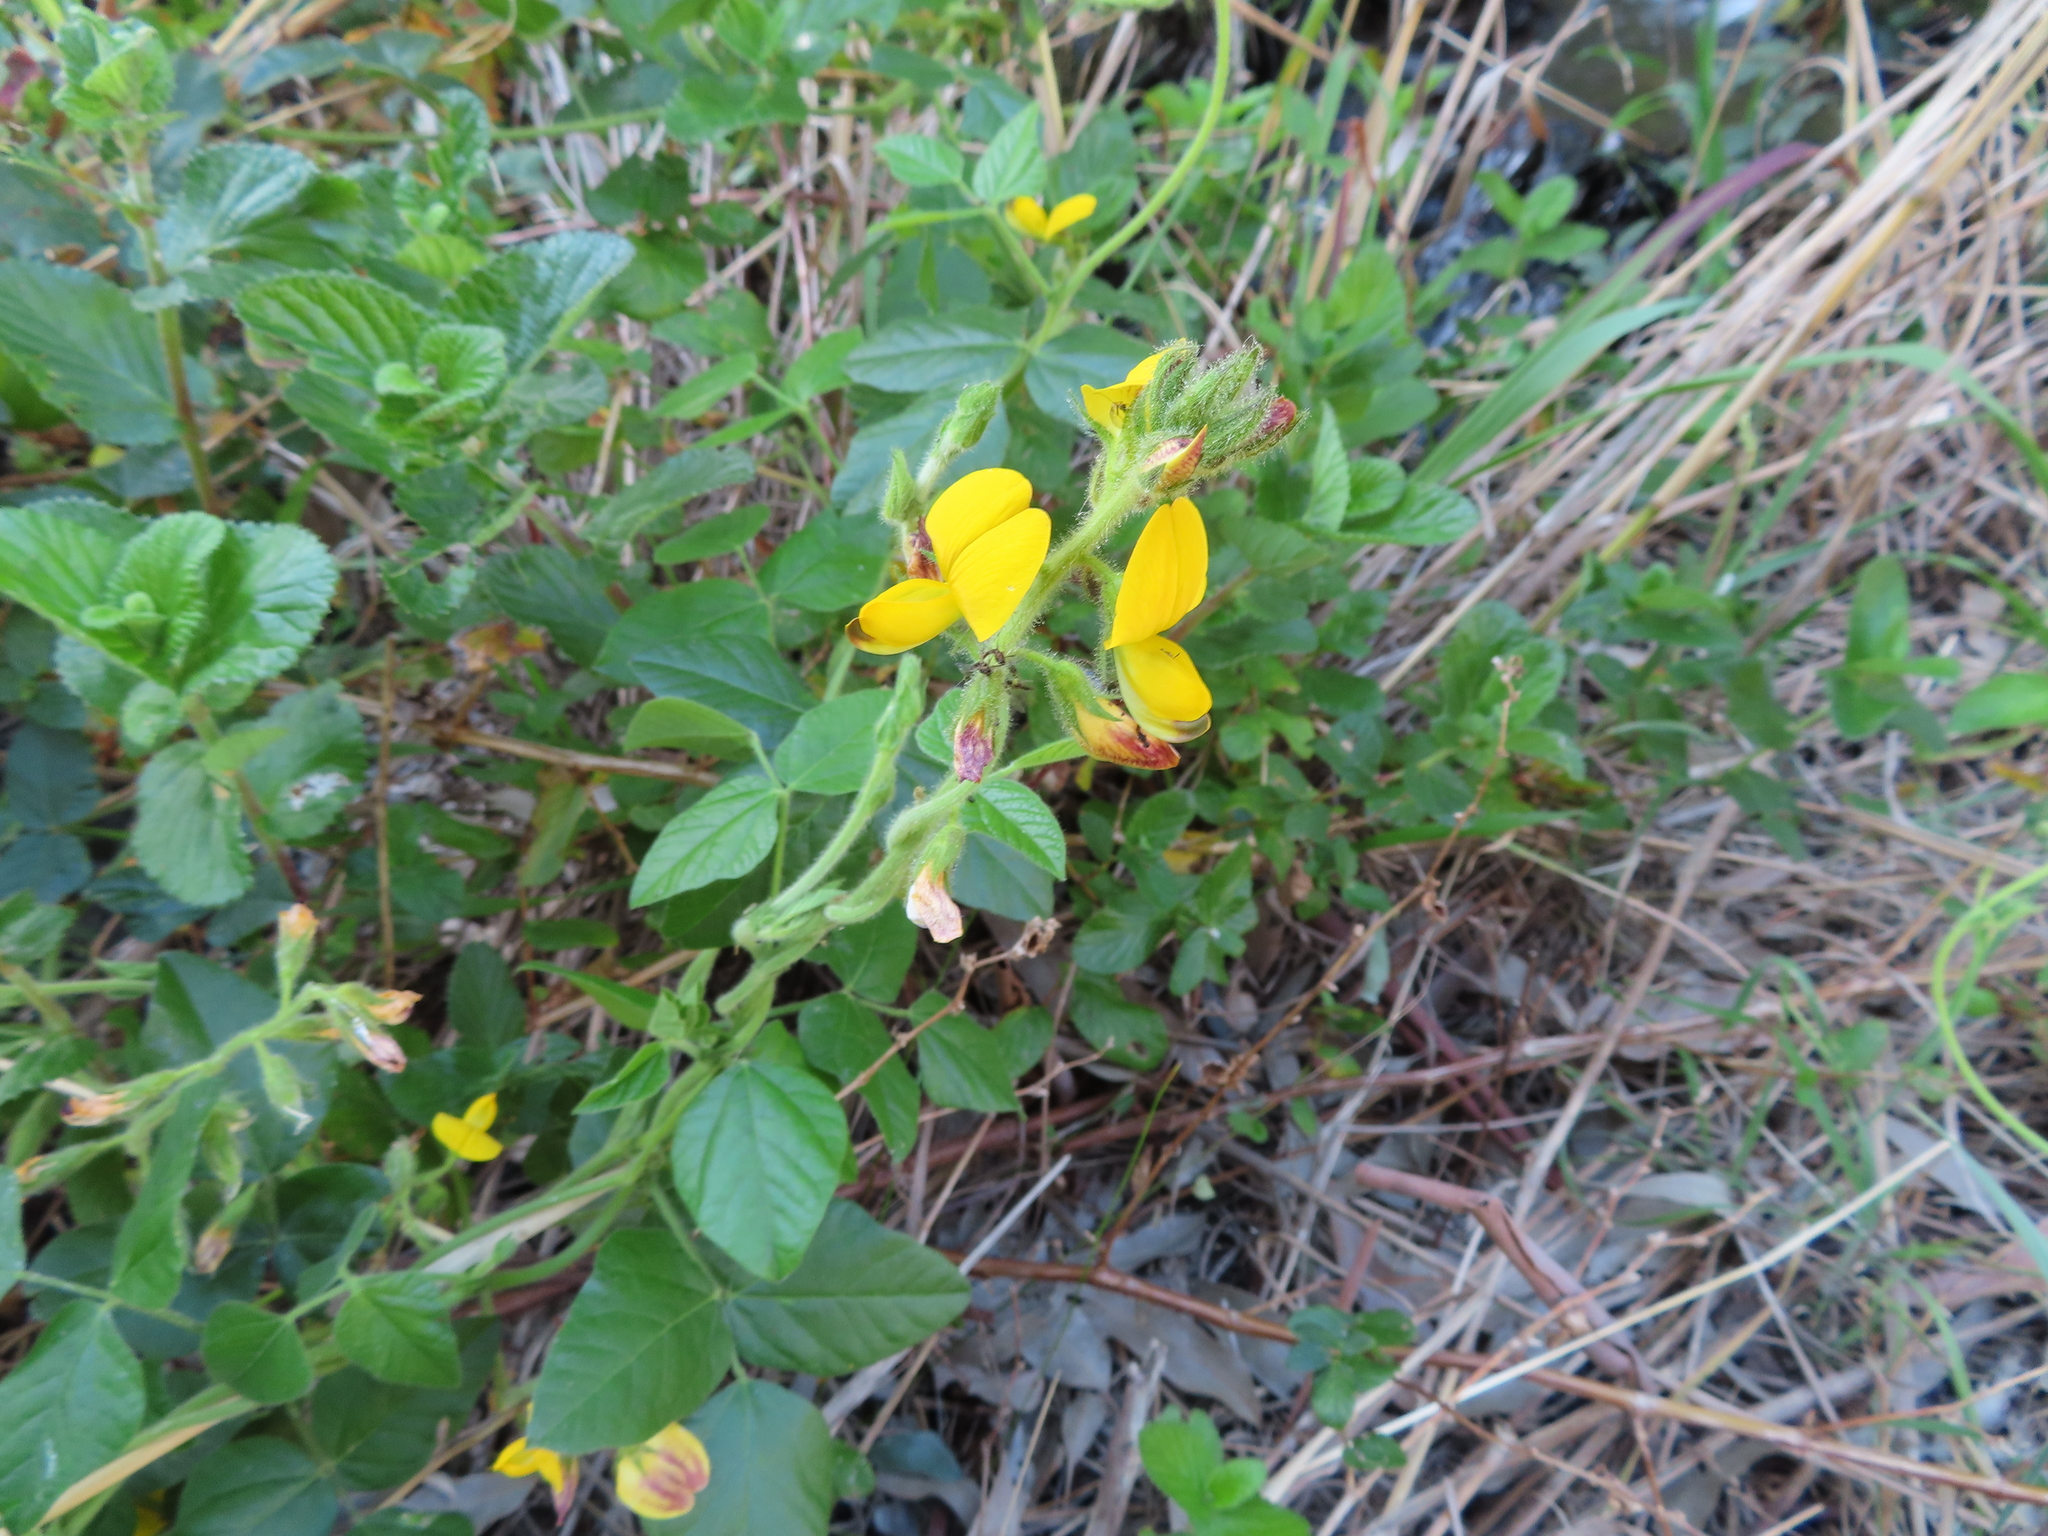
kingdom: Plantae
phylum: Tracheophyta
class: Magnoliopsida
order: Fabales
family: Fabaceae
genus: Bolusafra
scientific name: Bolusafra bituminosa
